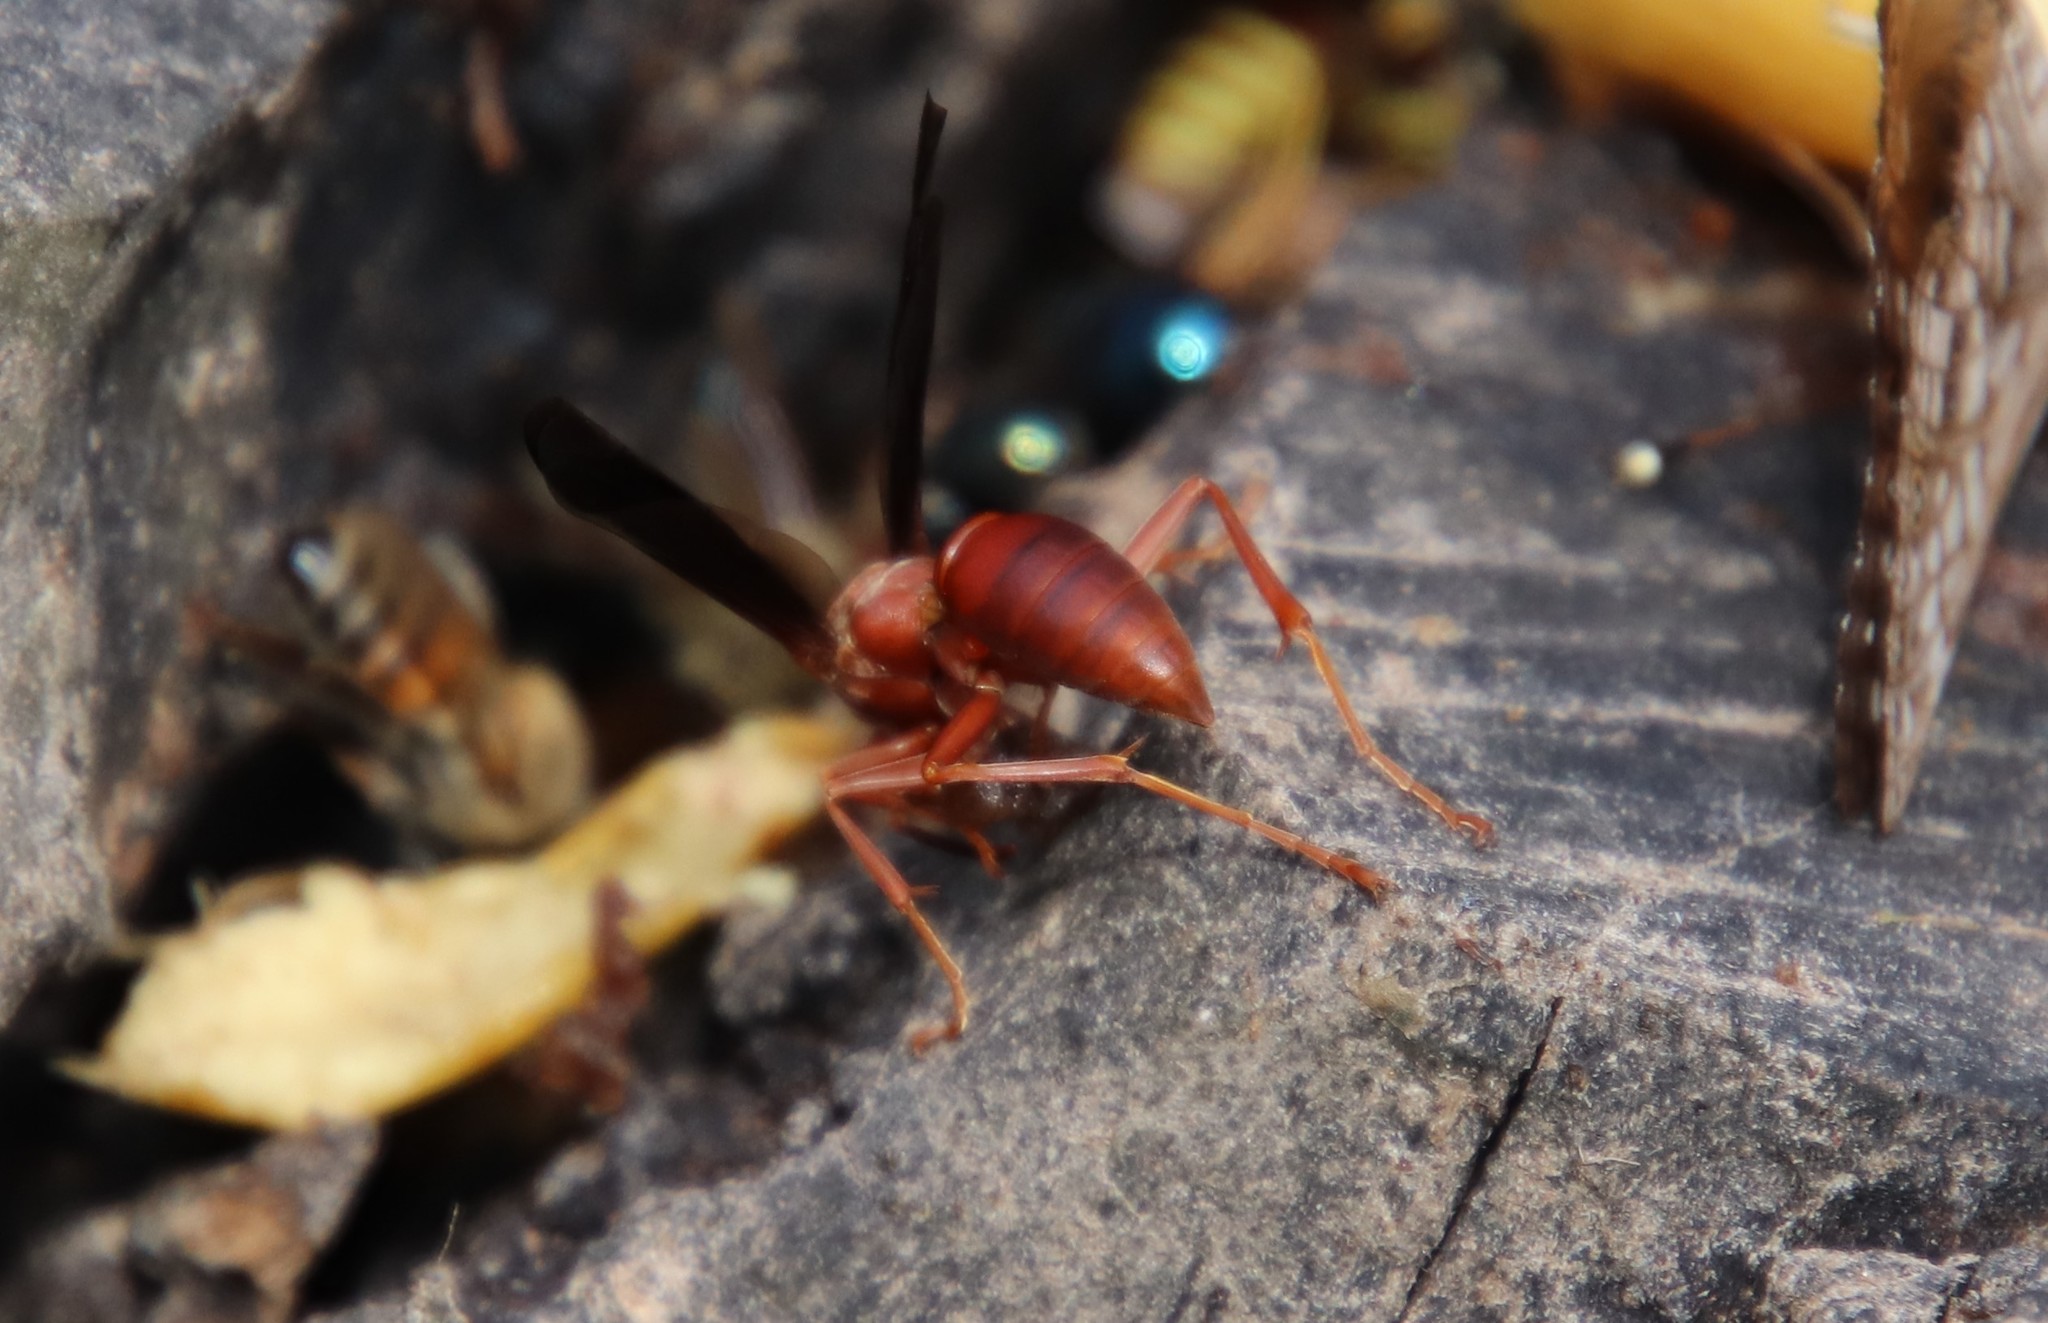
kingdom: Animalia
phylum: Arthropoda
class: Insecta
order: Hymenoptera
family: Vespidae
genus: Fuscopolistes
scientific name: Fuscopolistes
